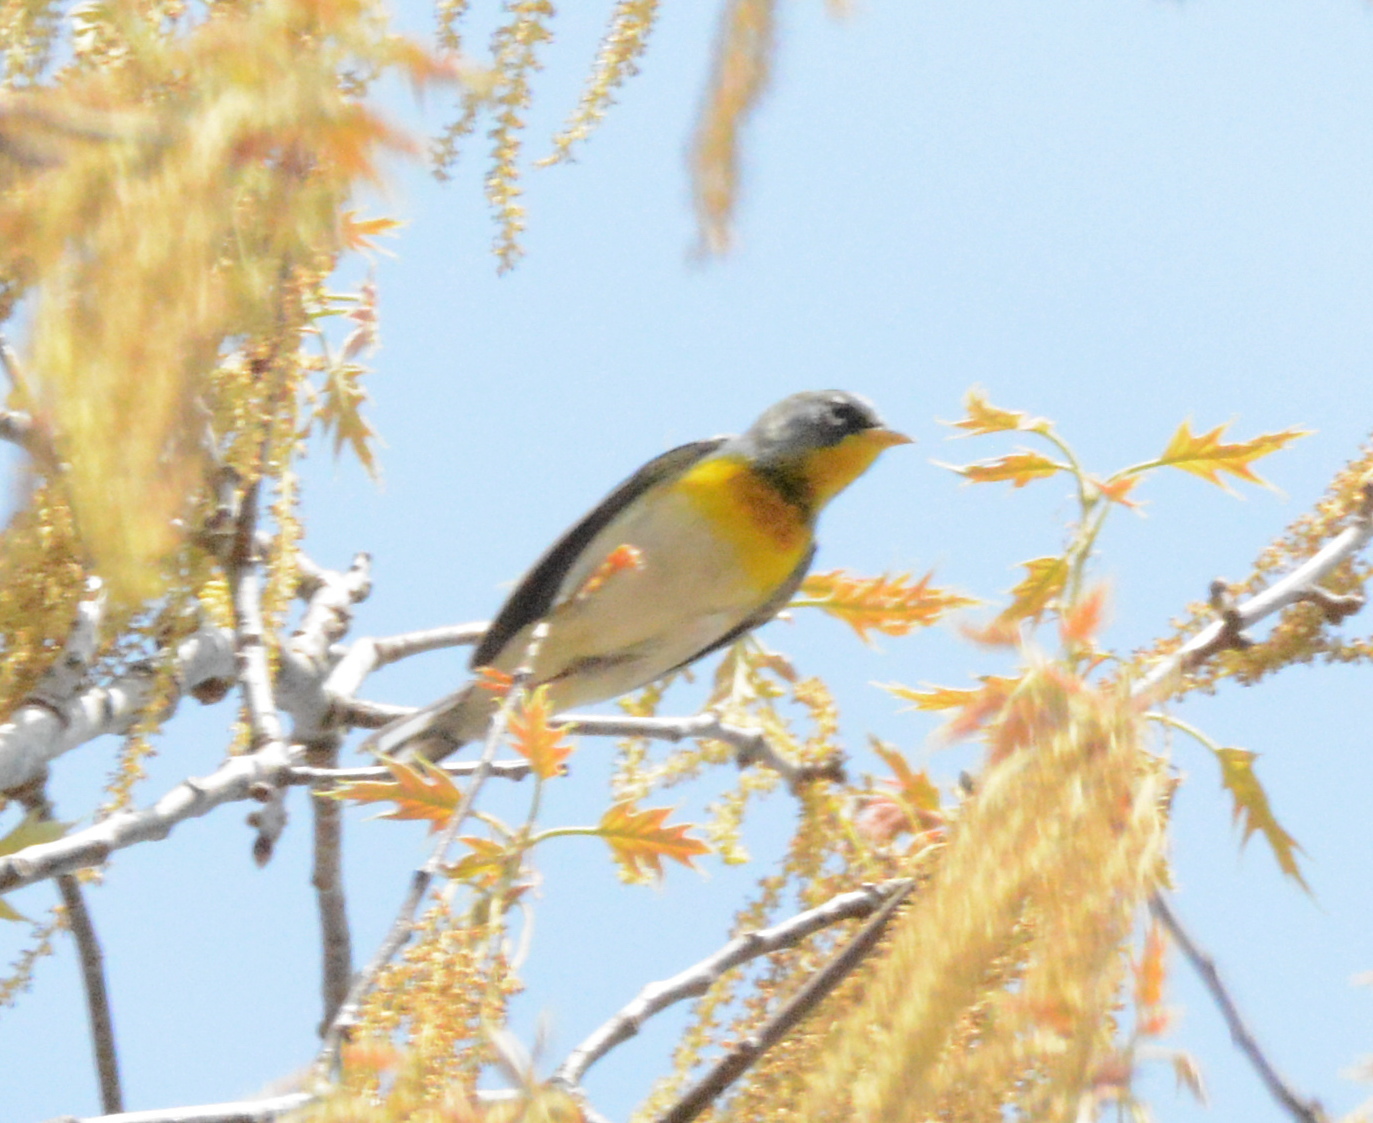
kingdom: Animalia
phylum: Chordata
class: Aves
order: Passeriformes
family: Parulidae
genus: Setophaga
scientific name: Setophaga americana
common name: Northern parula
